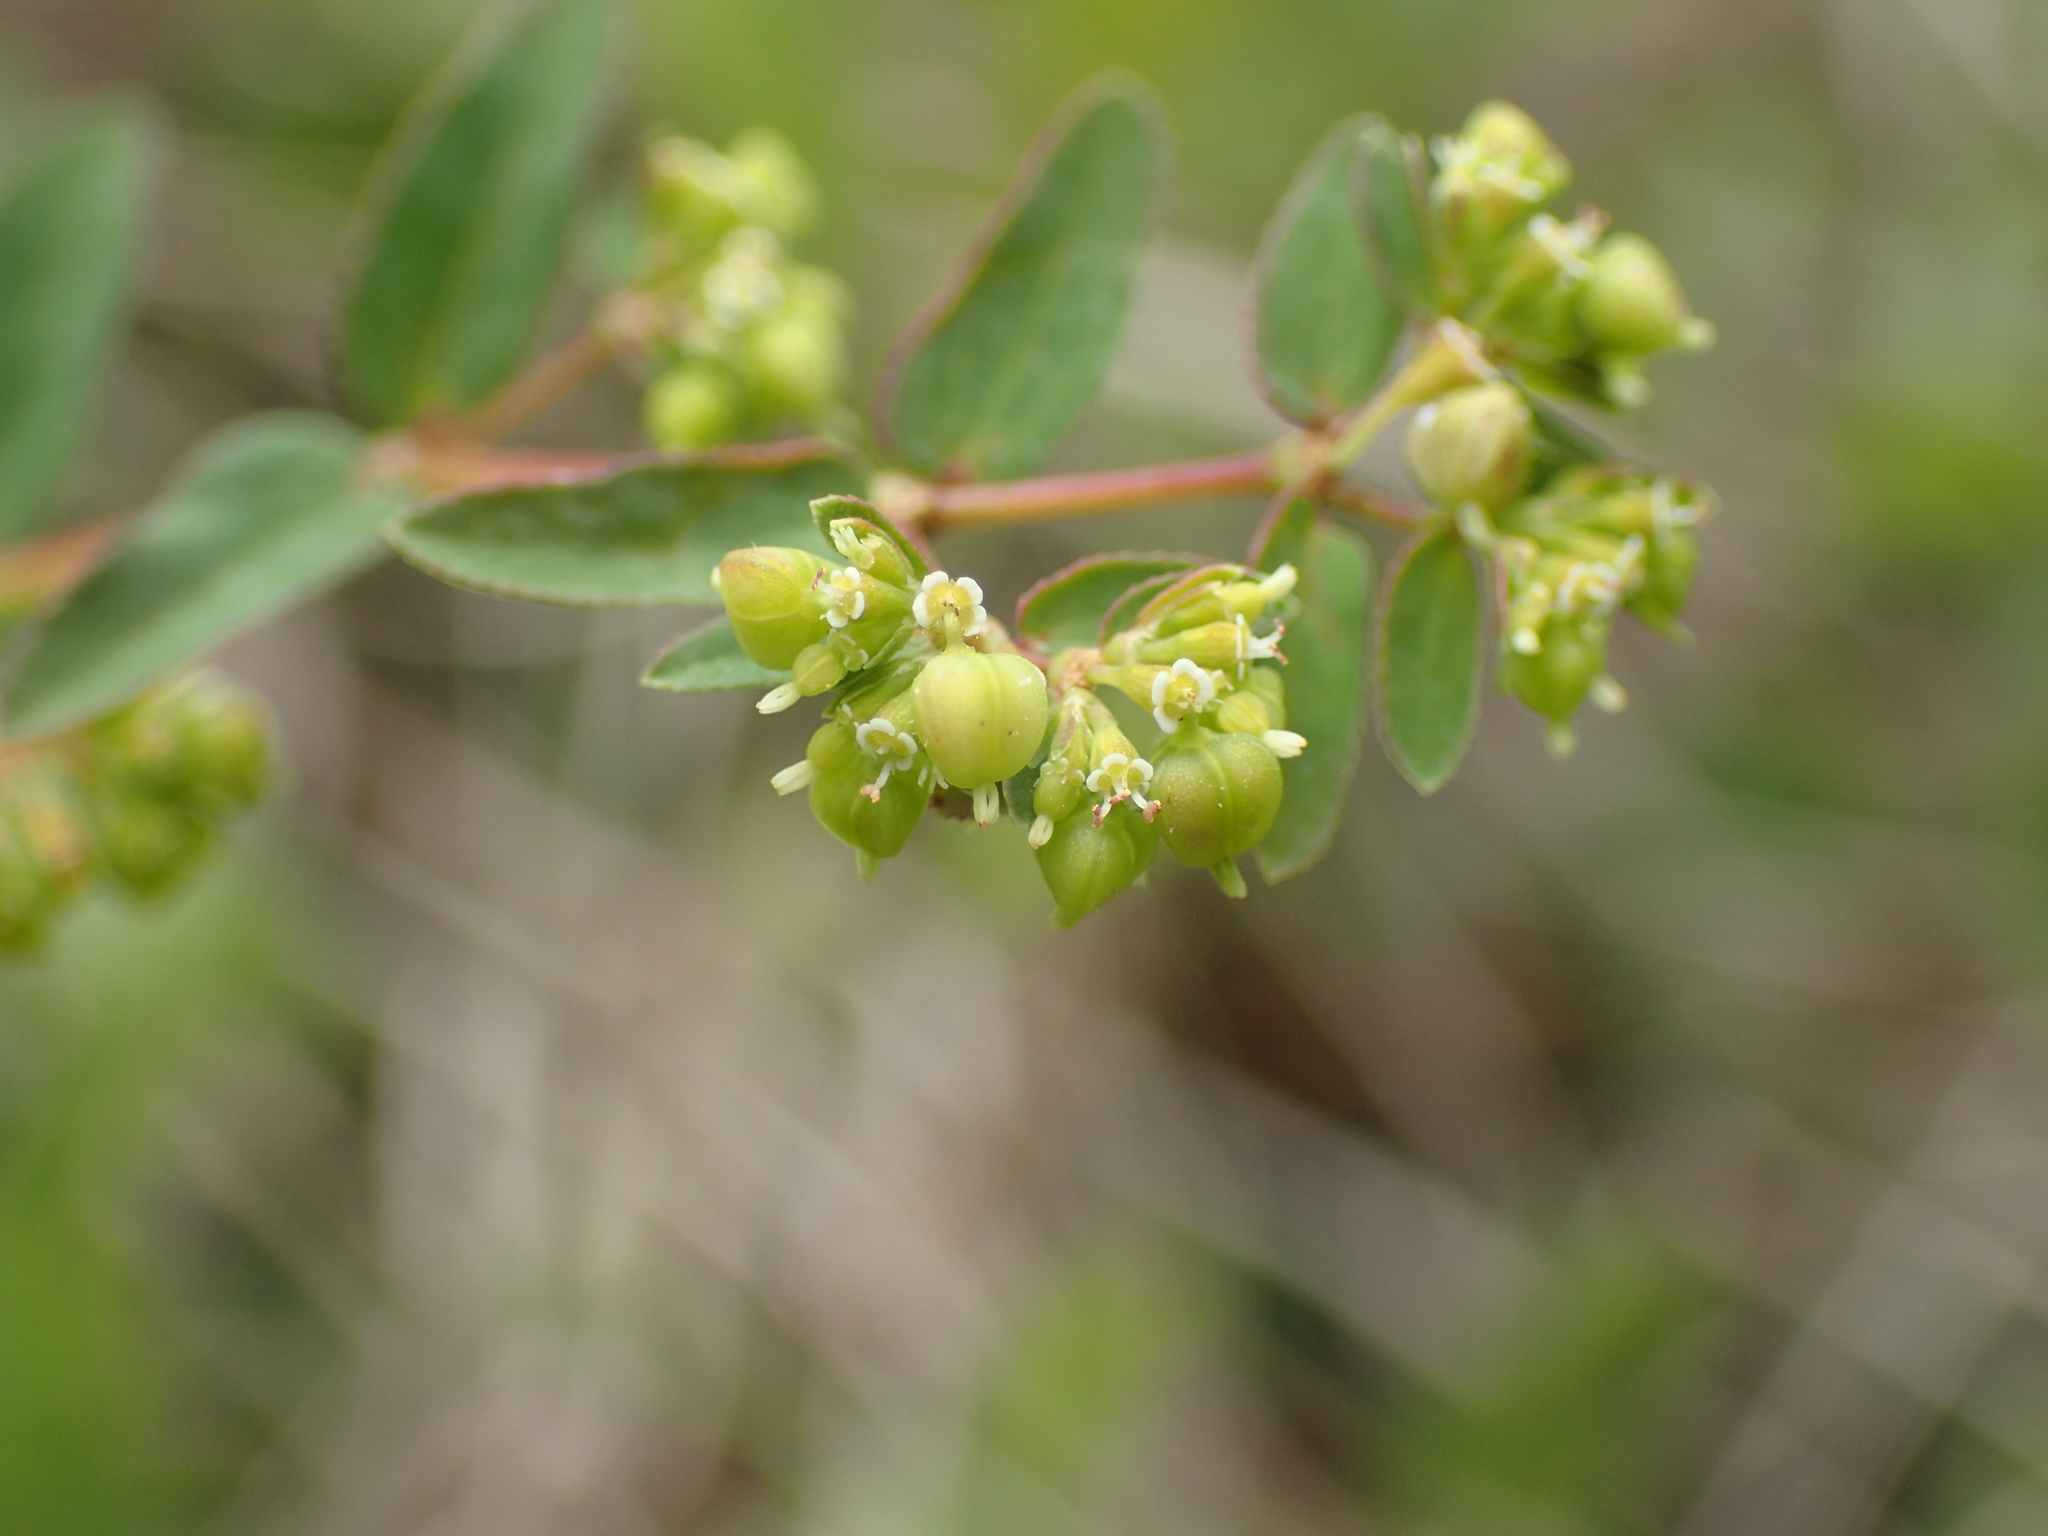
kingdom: Plantae
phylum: Tracheophyta
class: Magnoliopsida
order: Malpighiales
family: Euphorbiaceae
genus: Euphorbia
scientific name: Euphorbia nutans
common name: Eyebane
